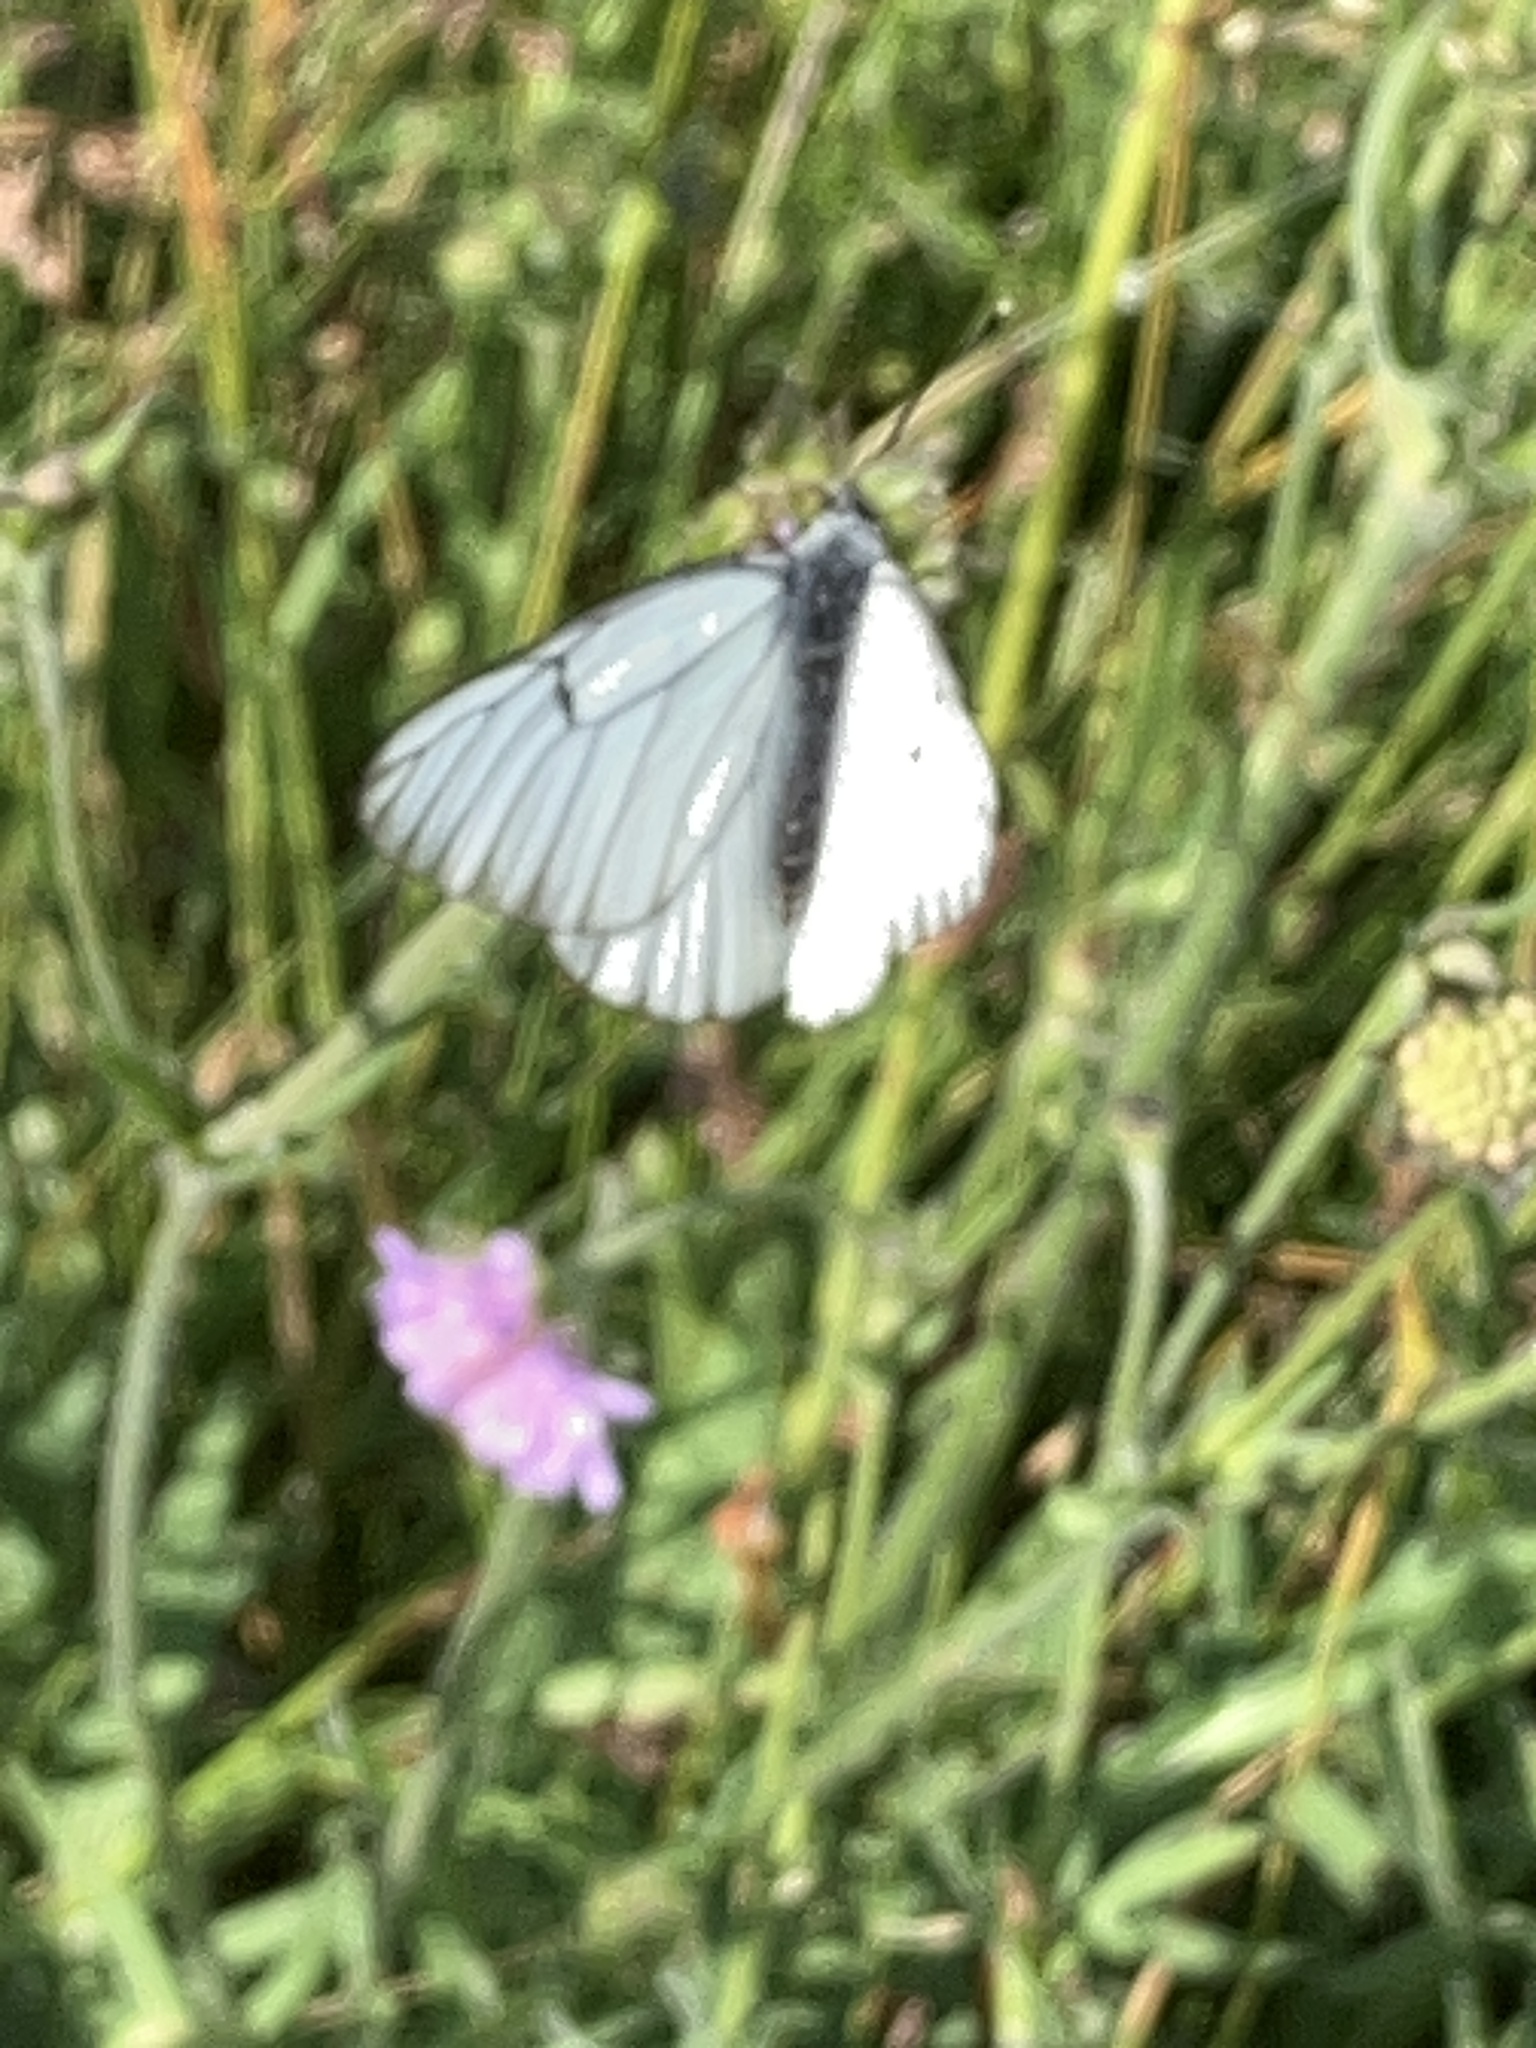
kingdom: Animalia
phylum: Arthropoda
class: Insecta
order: Lepidoptera
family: Pieridae
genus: Aporia
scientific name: Aporia crataegi
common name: Black-veined white
